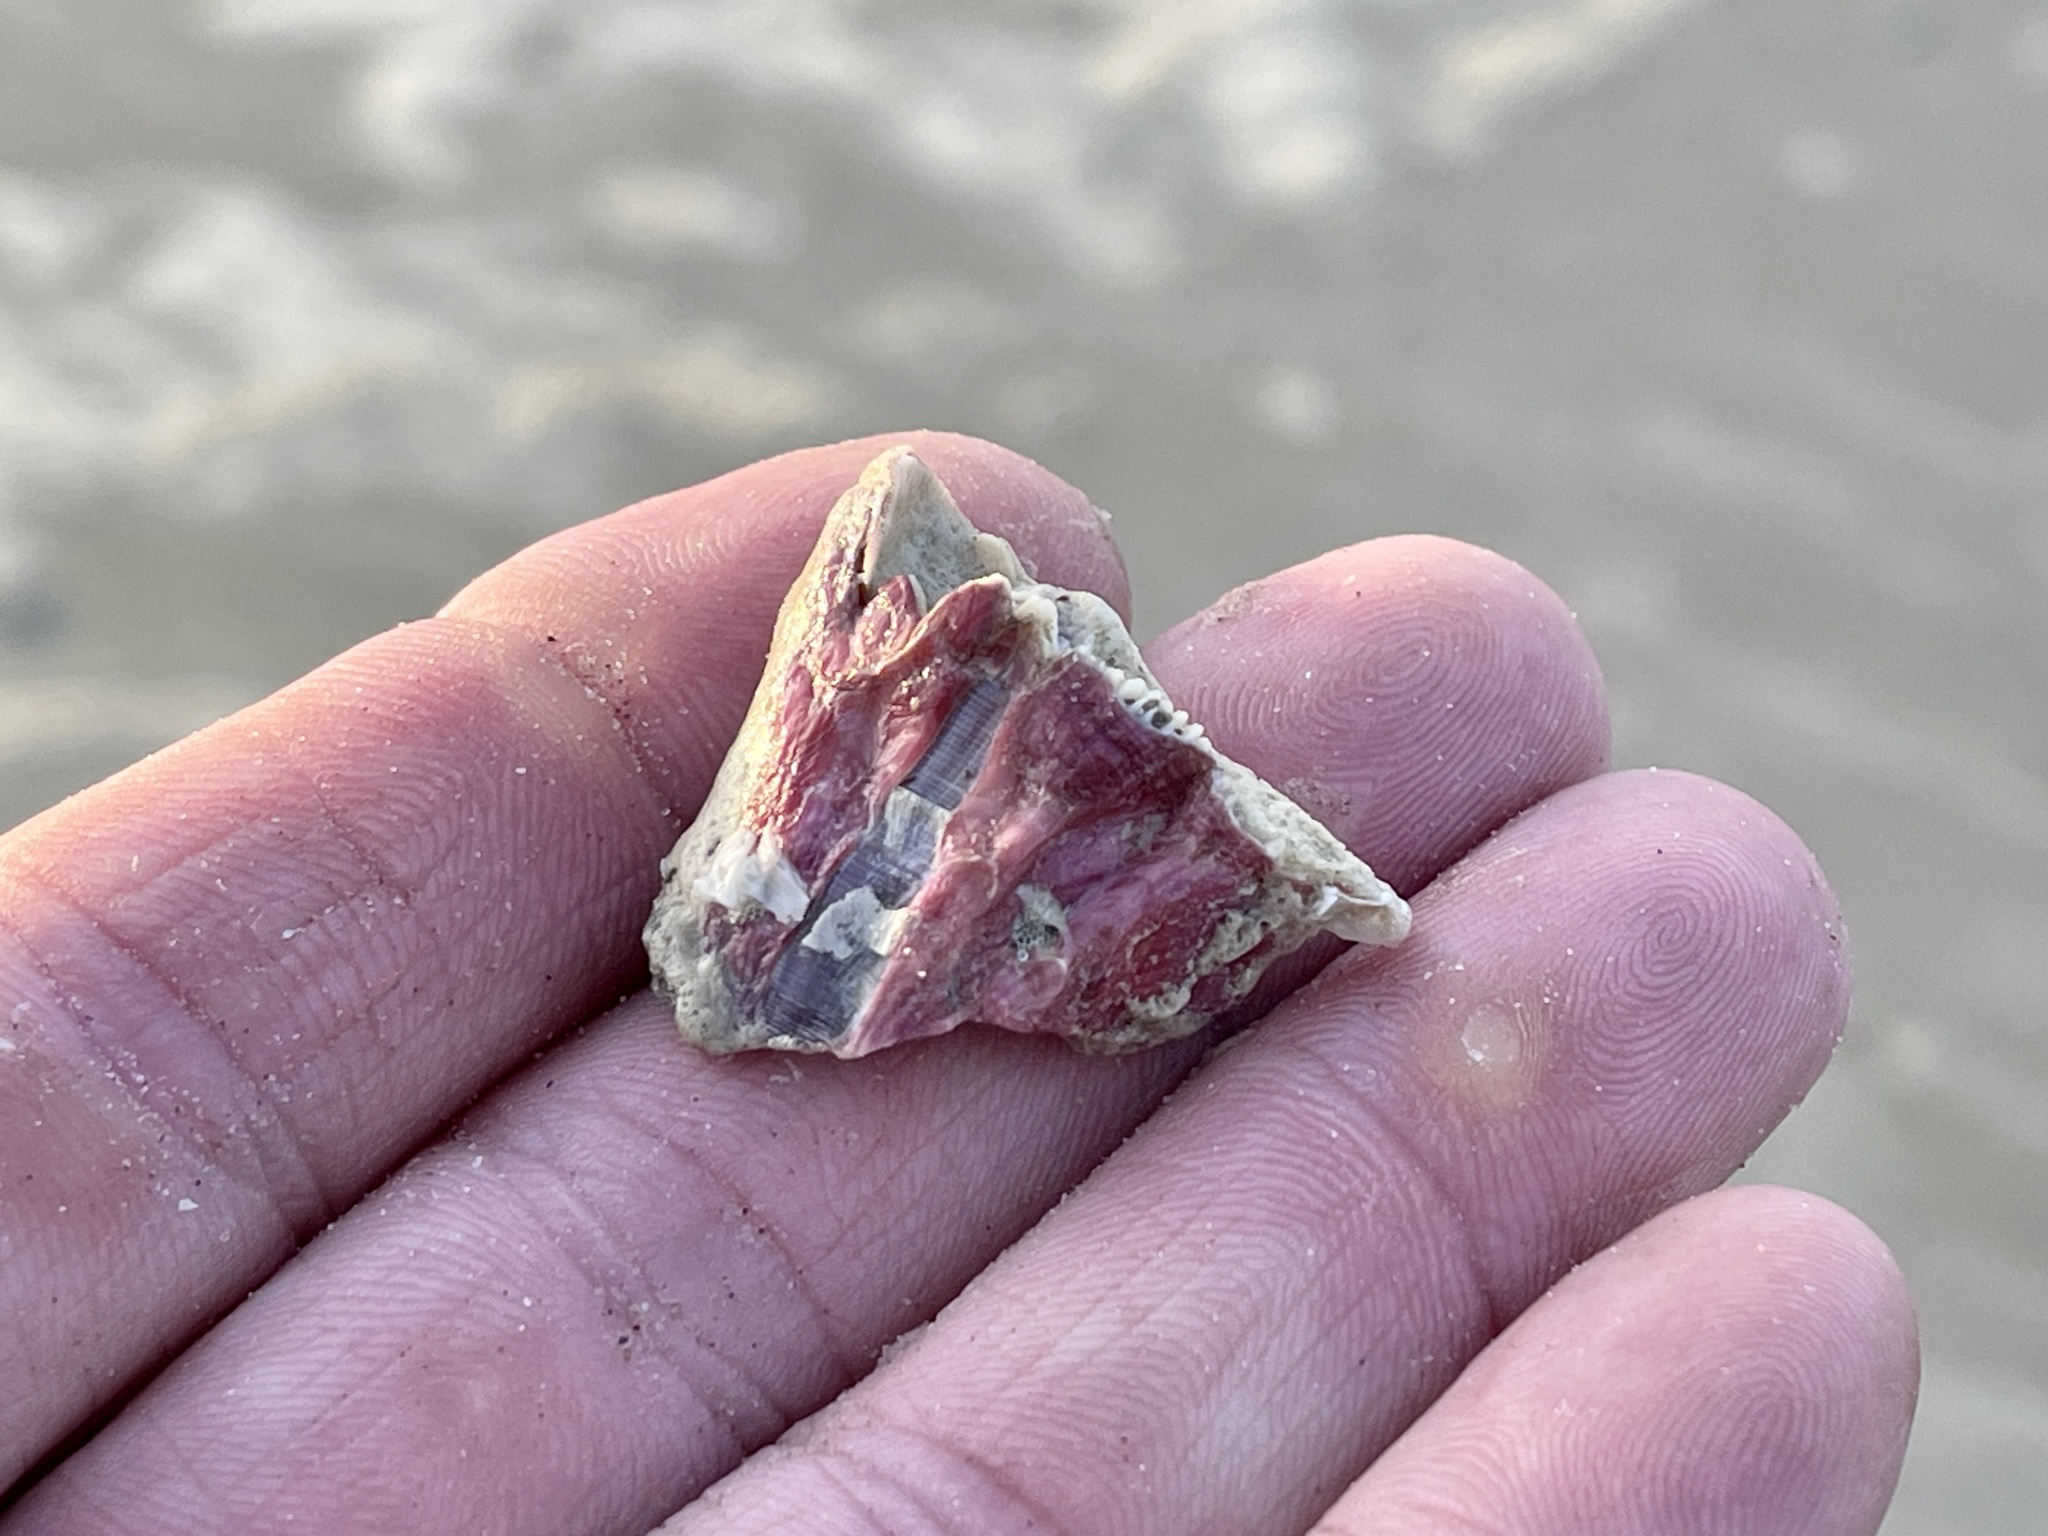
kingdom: Animalia
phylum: Arthropoda
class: Maxillopoda
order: Sessilia
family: Balanidae
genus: Megabalanus
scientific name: Megabalanus tintinnabulum
